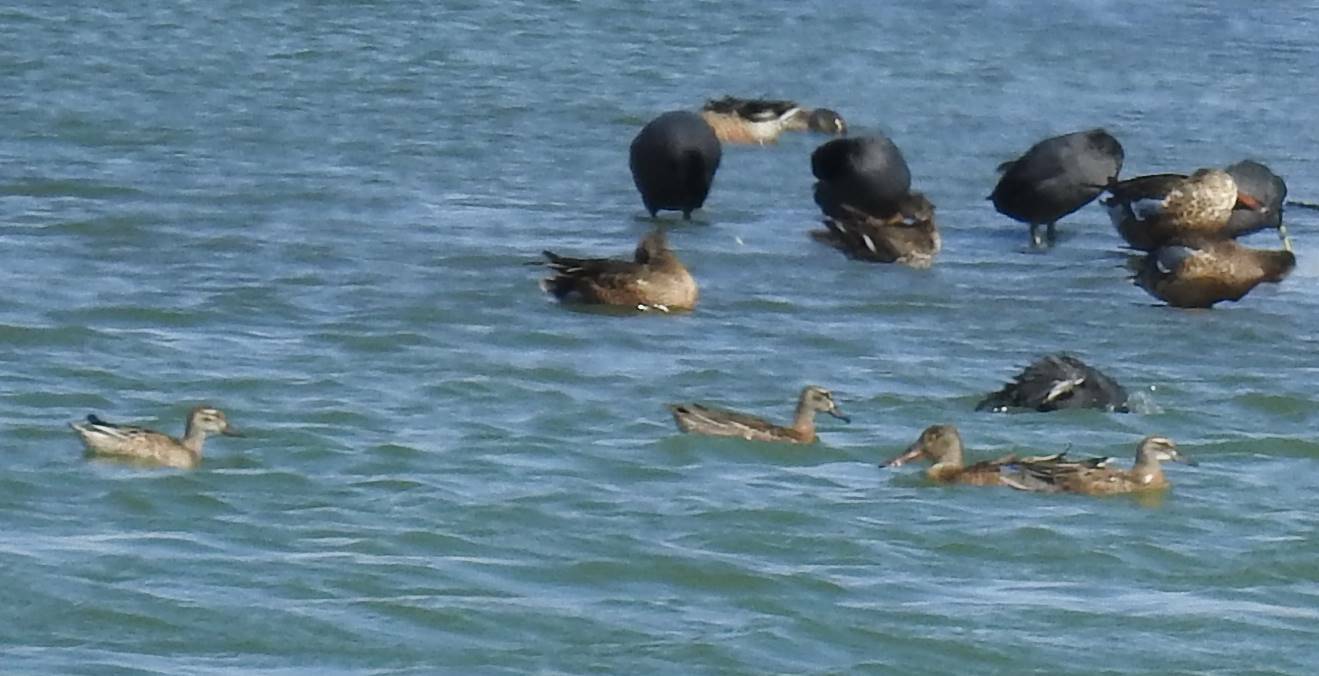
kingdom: Animalia
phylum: Chordata
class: Aves
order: Anseriformes
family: Anatidae
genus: Spatula
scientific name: Spatula querquedula
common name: Garganey
